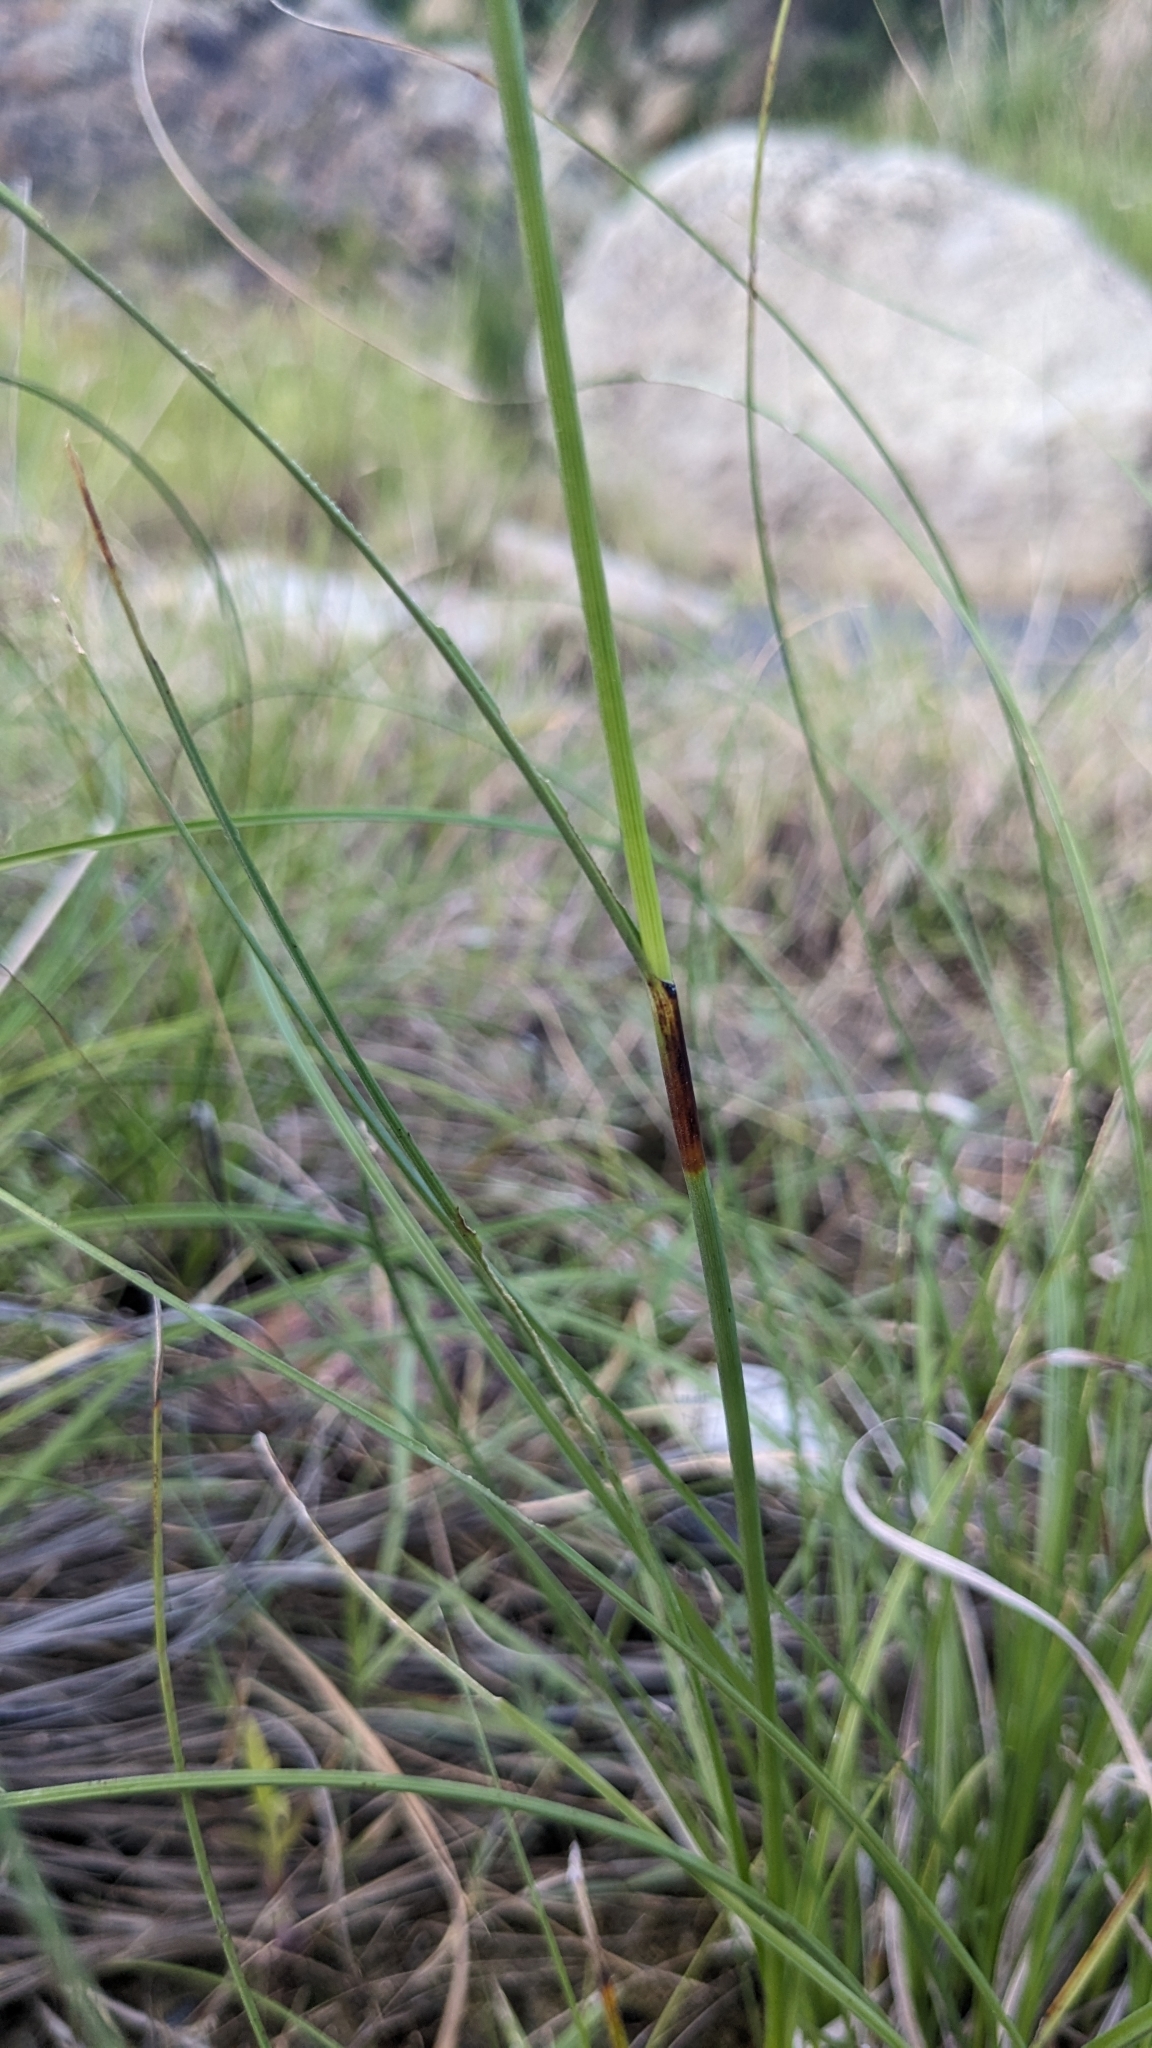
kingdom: Plantae
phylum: Tracheophyta
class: Liliopsida
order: Poales
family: Cyperaceae
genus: Schoenus
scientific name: Schoenus falcatus
